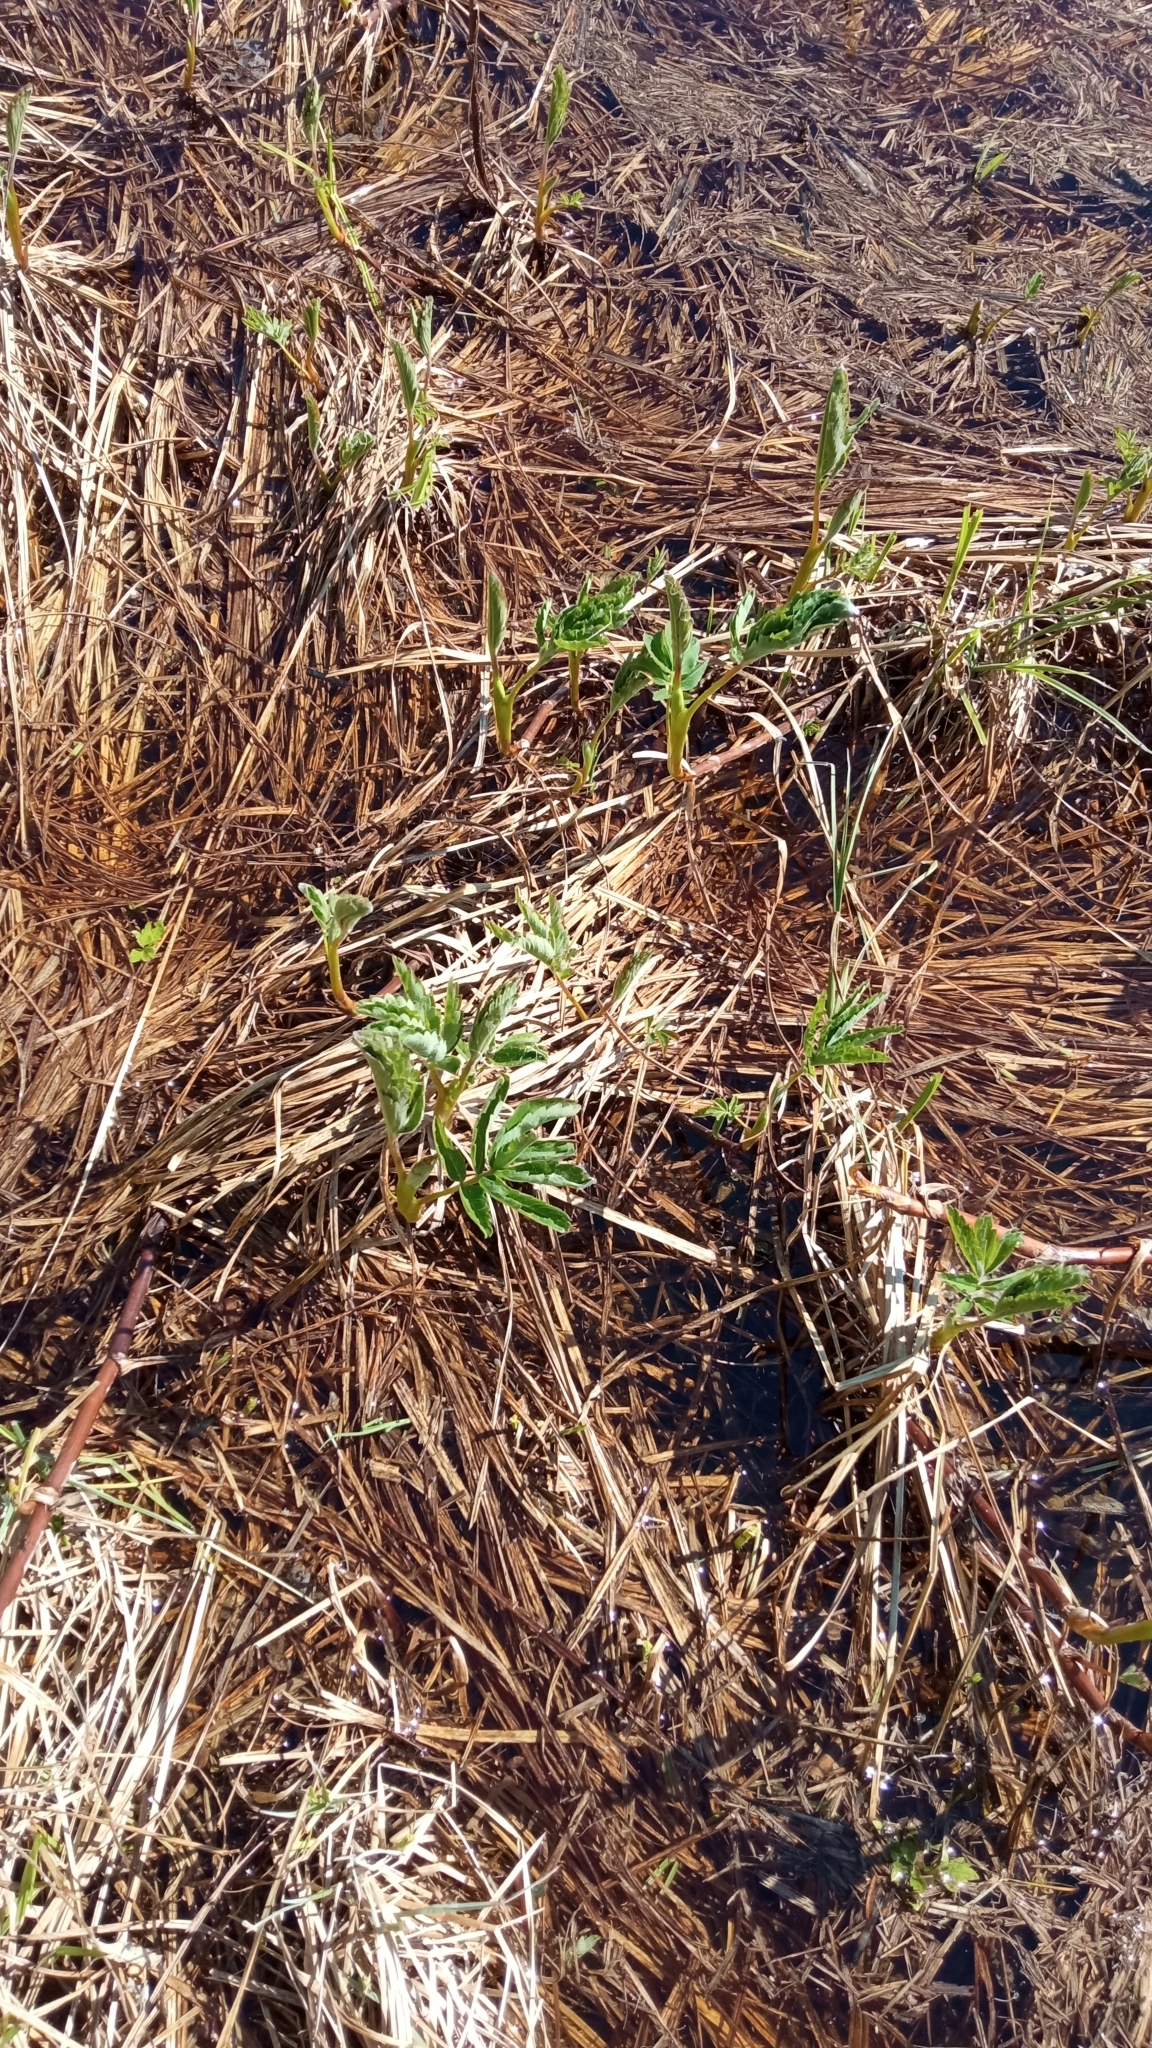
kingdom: Plantae
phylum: Tracheophyta
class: Magnoliopsida
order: Rosales
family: Rosaceae
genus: Comarum
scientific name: Comarum palustre
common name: Marsh cinquefoil
